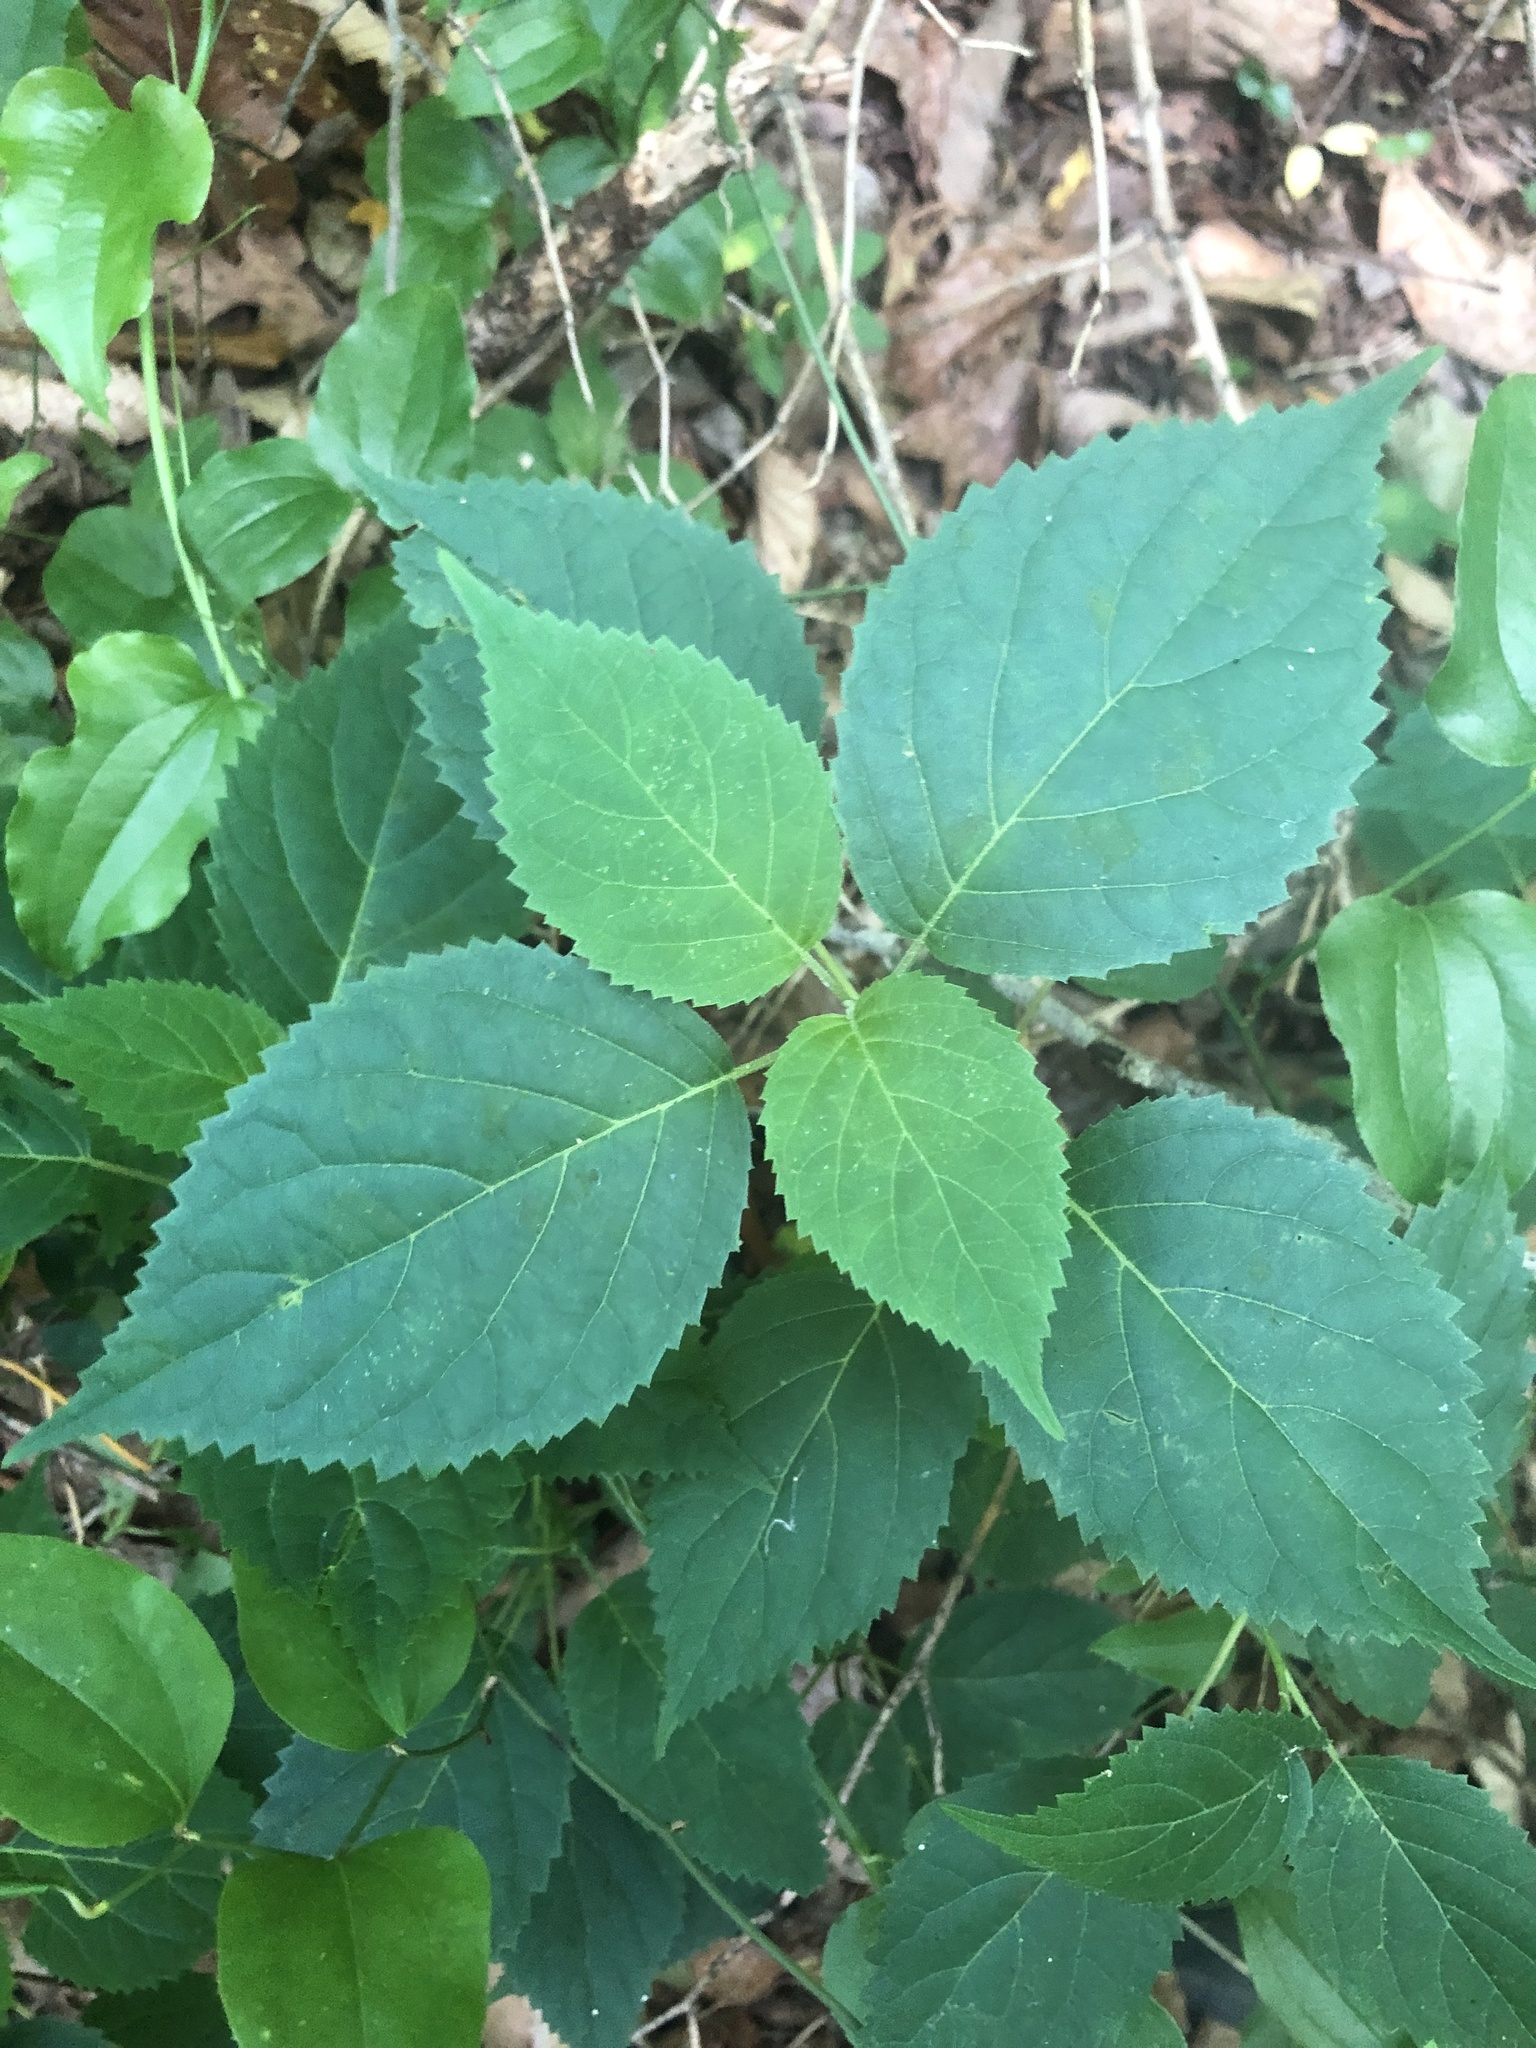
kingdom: Plantae
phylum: Tracheophyta
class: Magnoliopsida
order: Cornales
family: Hydrangeaceae
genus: Hydrangea
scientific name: Hydrangea arborescens
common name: Sevenbark
